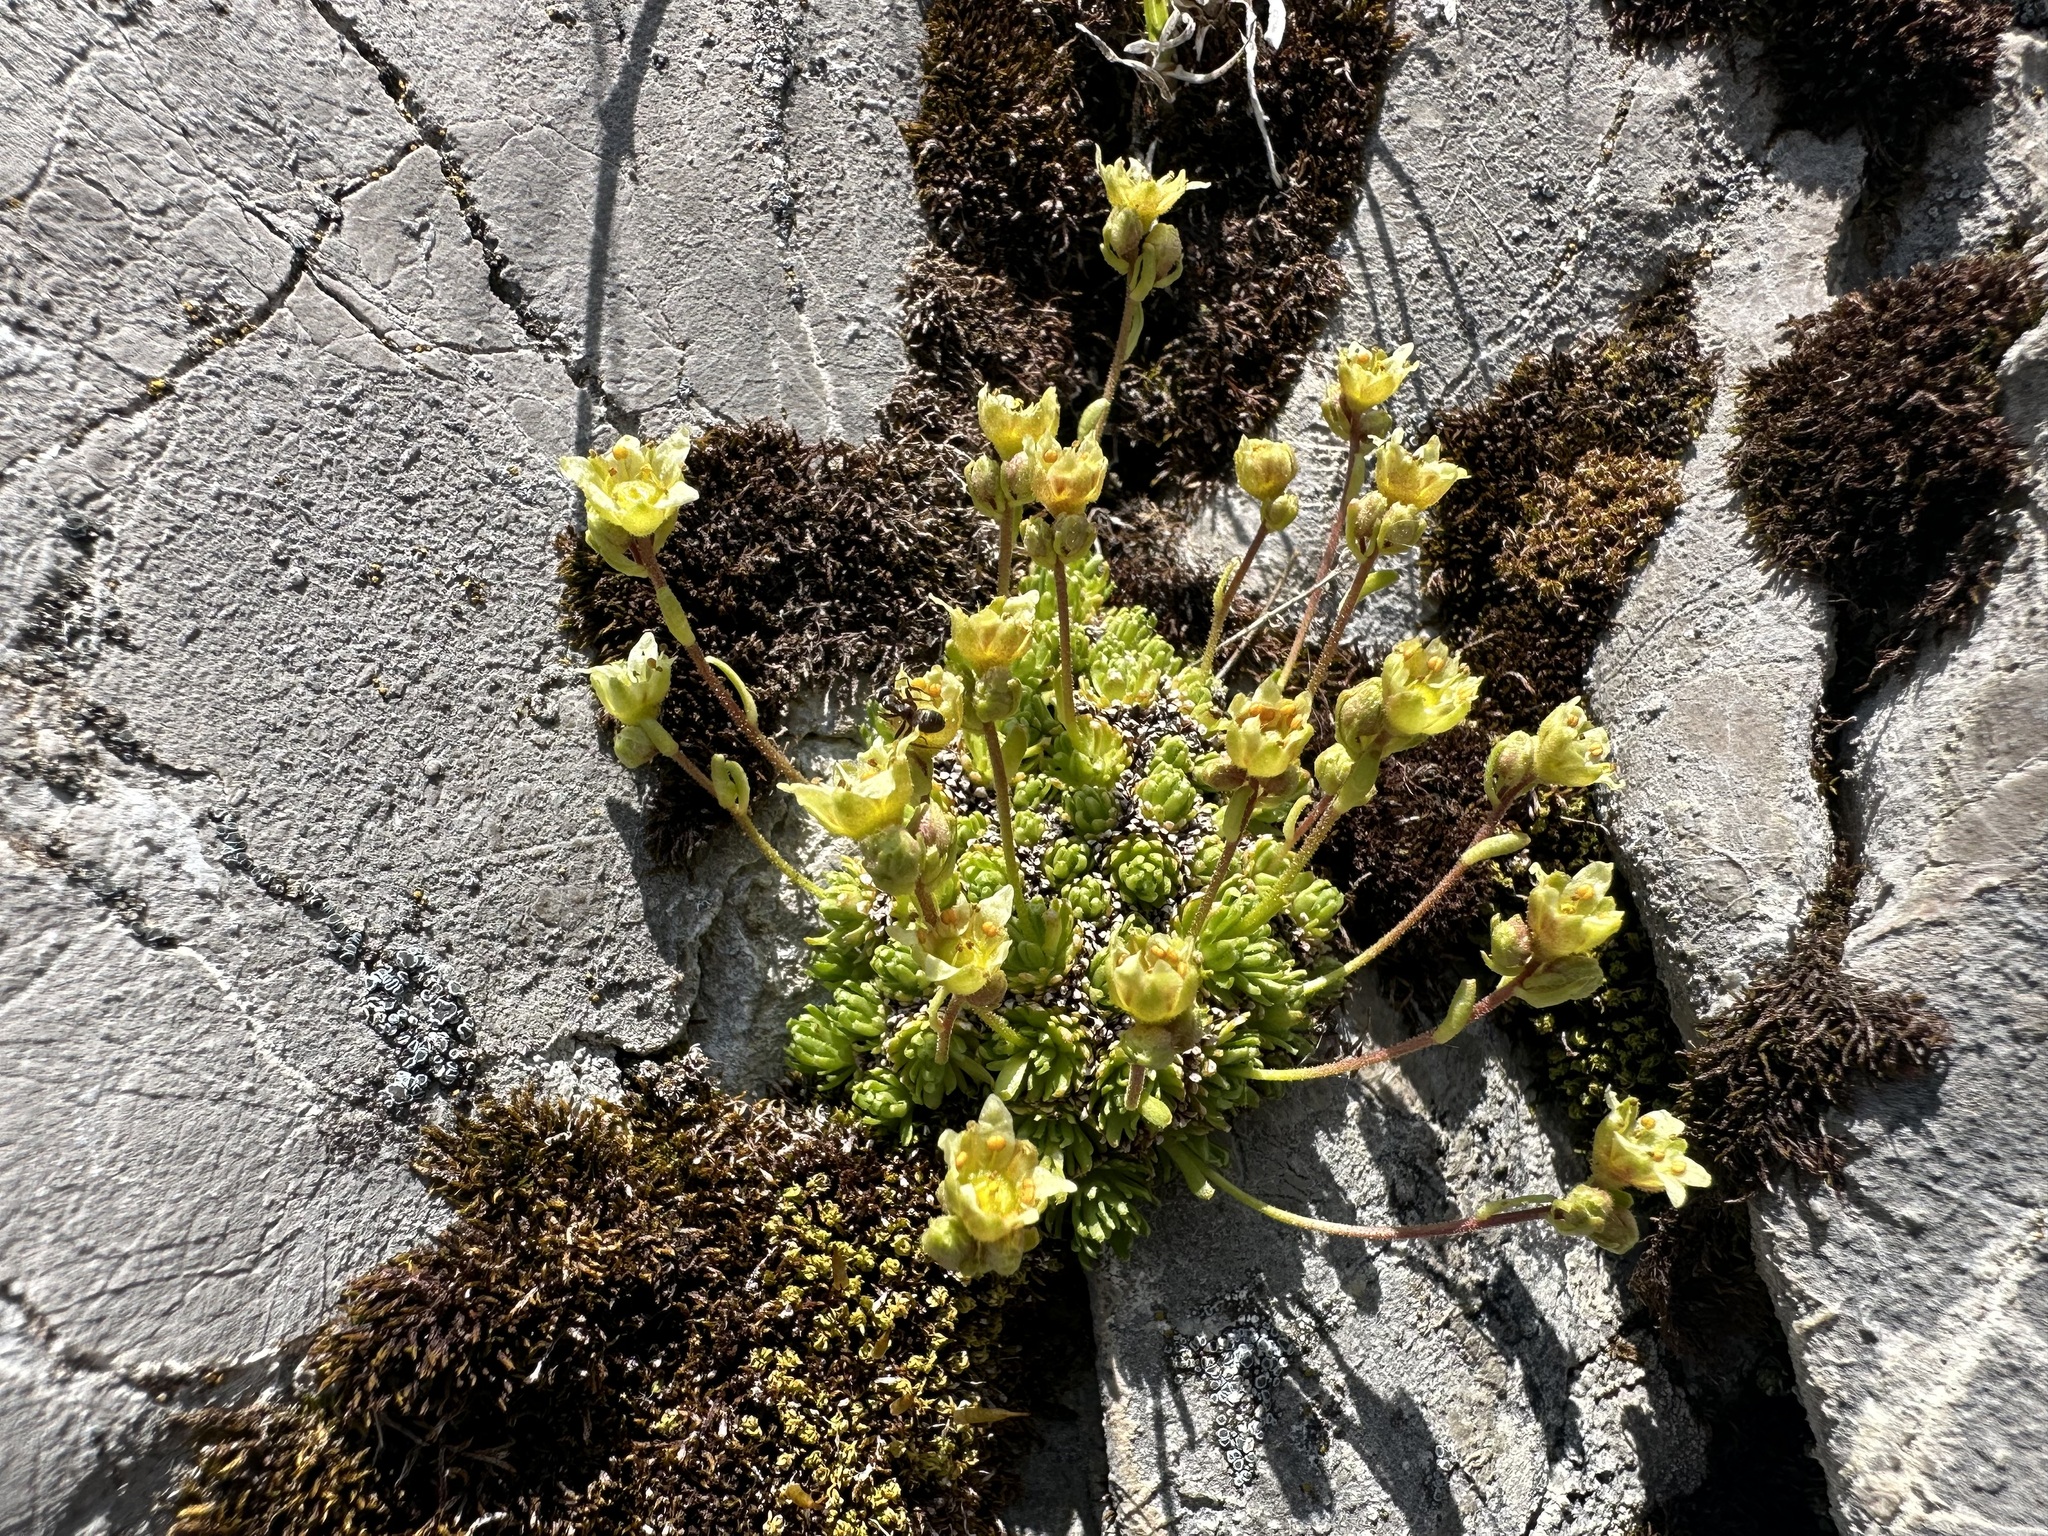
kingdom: Plantae
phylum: Tracheophyta
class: Magnoliopsida
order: Saxifragales
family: Saxifragaceae
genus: Saxifraga
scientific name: Saxifraga moschata
